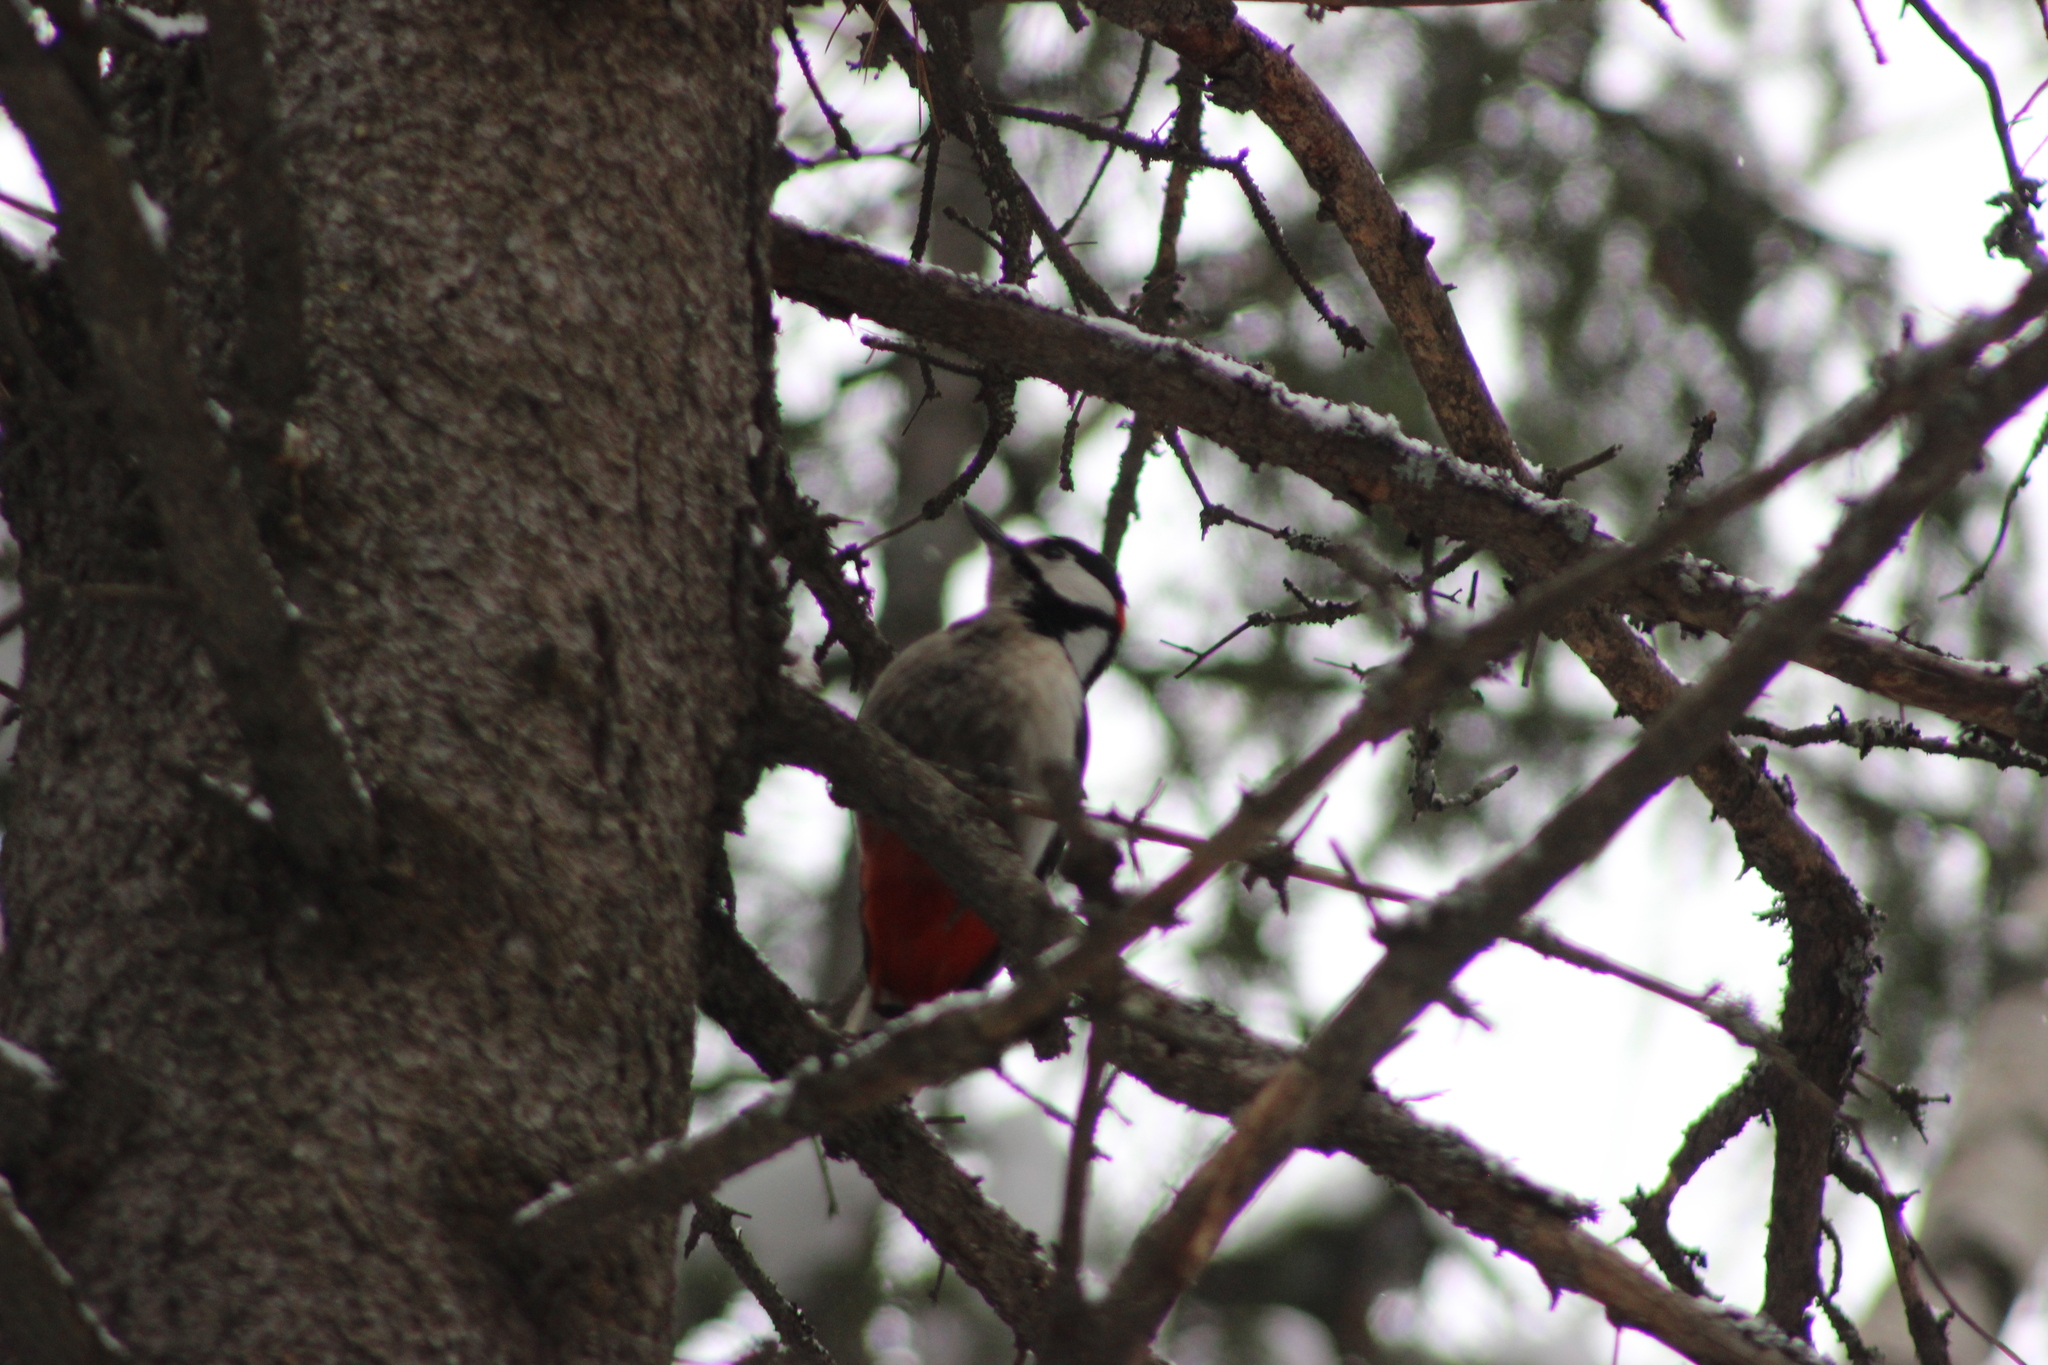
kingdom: Animalia
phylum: Chordata
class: Aves
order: Piciformes
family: Picidae
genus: Dendrocopos
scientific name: Dendrocopos major
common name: Great spotted woodpecker
